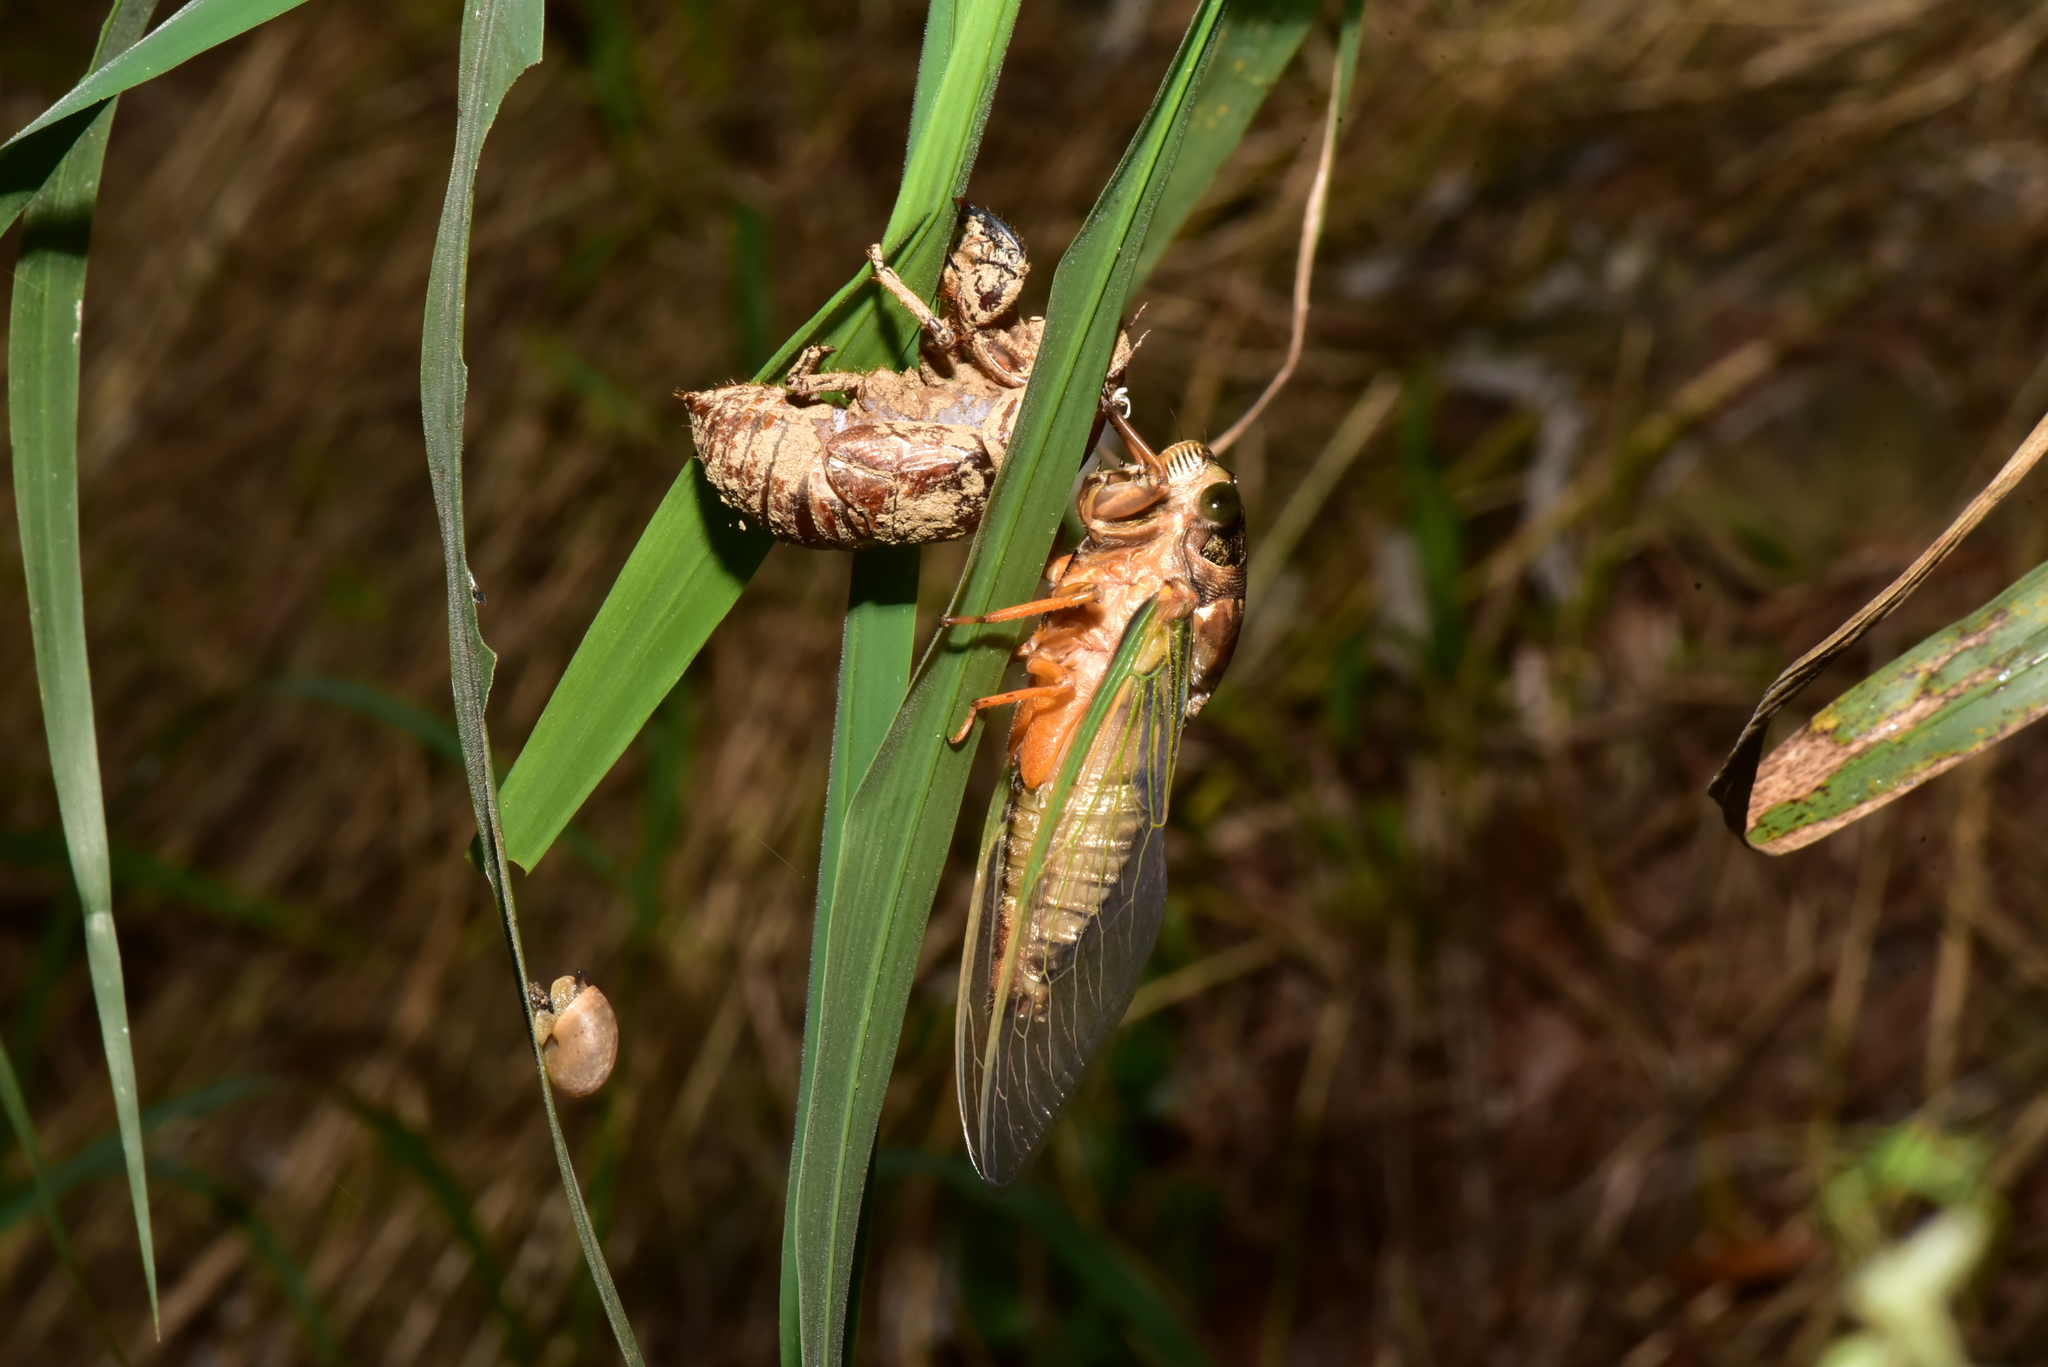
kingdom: Animalia
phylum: Arthropoda
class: Insecta
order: Hemiptera
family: Cicadidae
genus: Cryptotympana
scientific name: Cryptotympana takasagona
